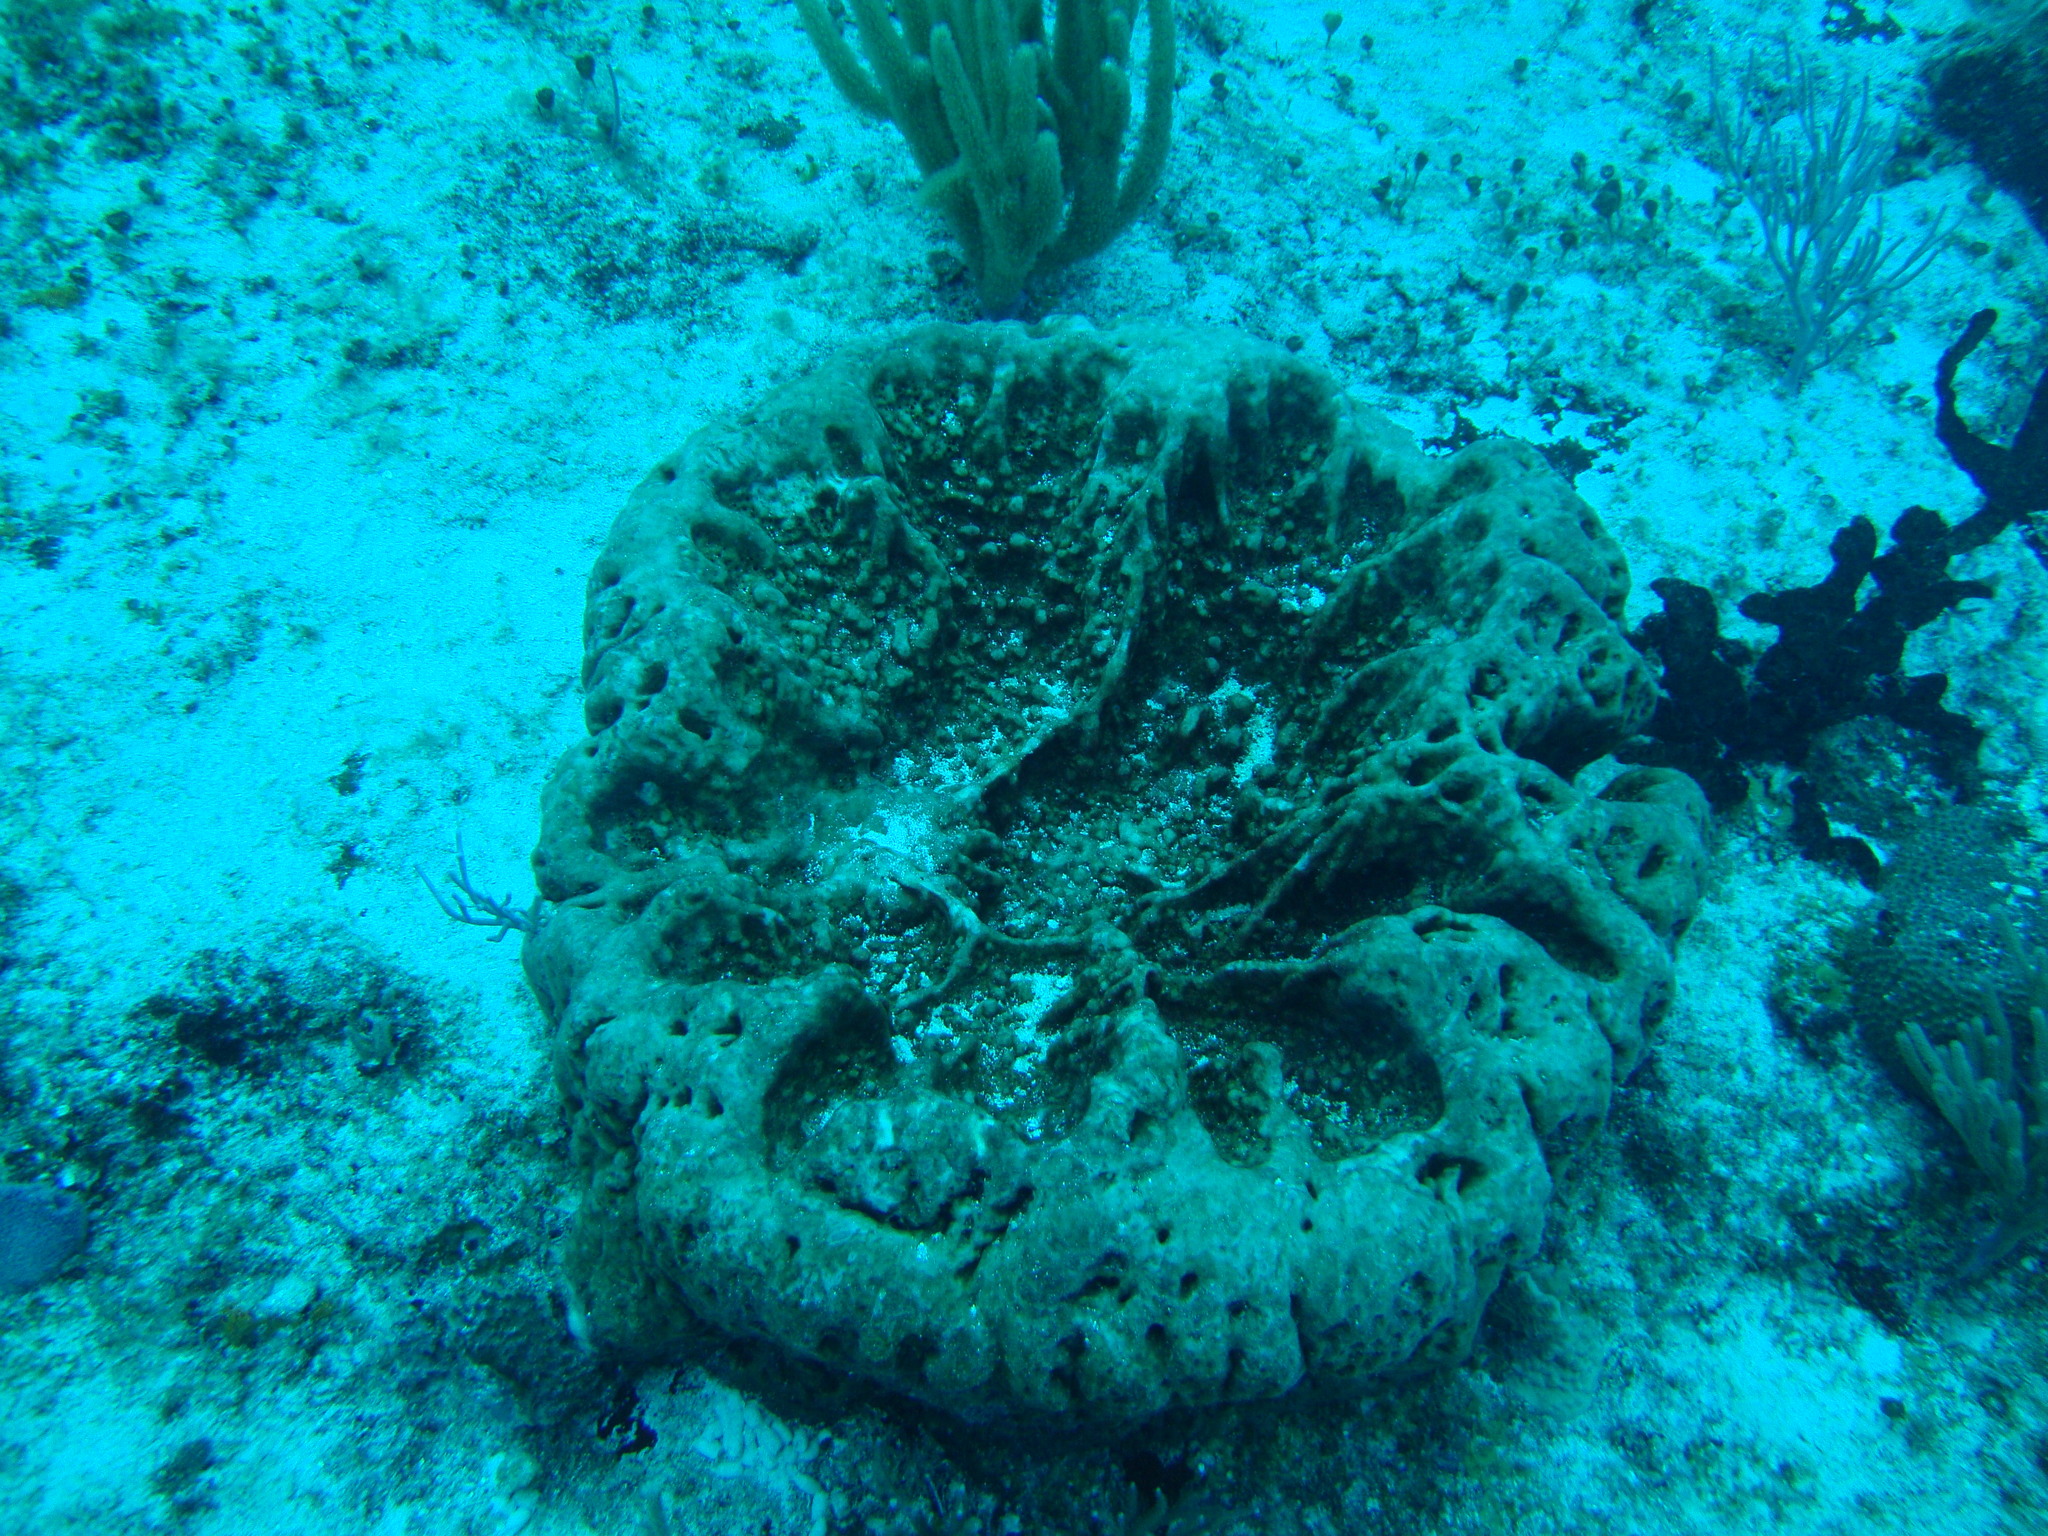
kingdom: Animalia
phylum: Porifera
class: Demospongiae
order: Tetractinellida
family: Geodiidae
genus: Geodia
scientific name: Geodia neptuni
